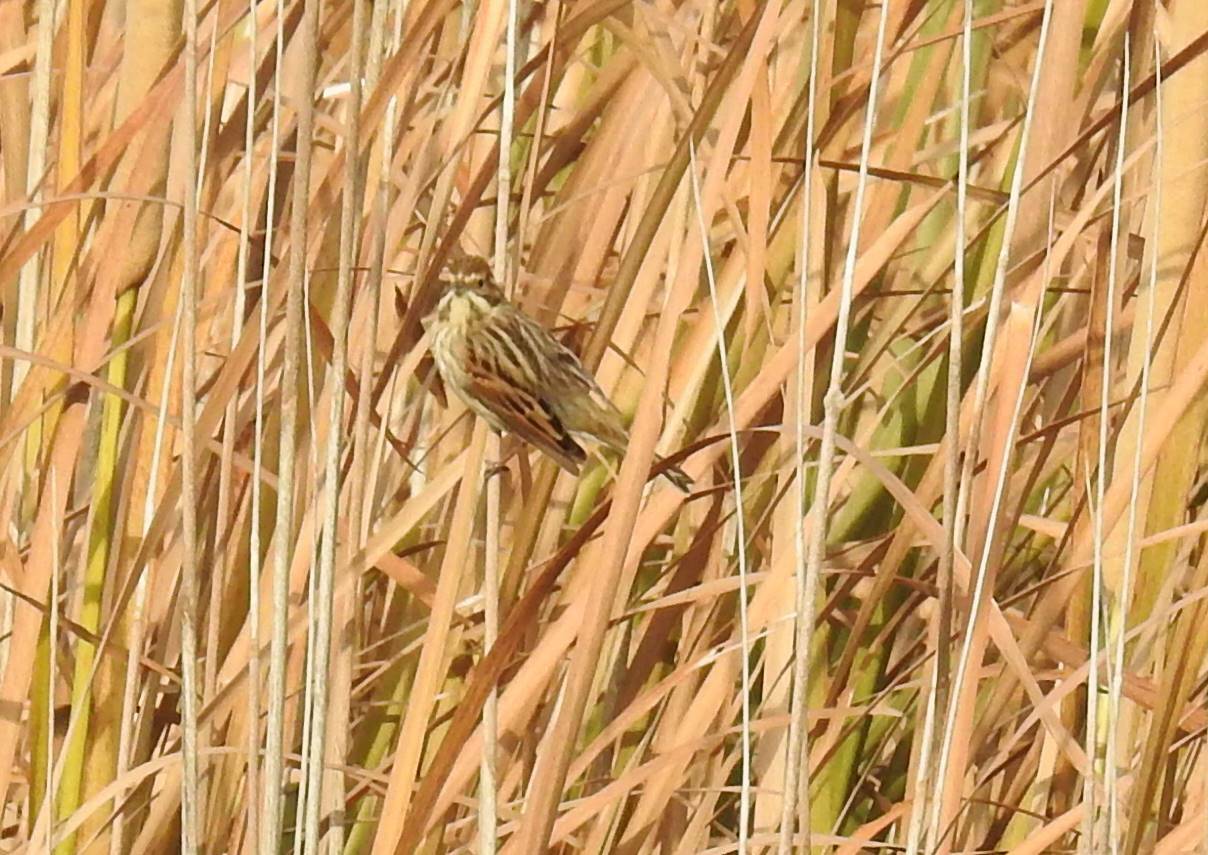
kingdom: Animalia
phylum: Chordata
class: Aves
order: Passeriformes
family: Emberizidae
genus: Emberiza
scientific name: Emberiza schoeniclus
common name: Reed bunting
